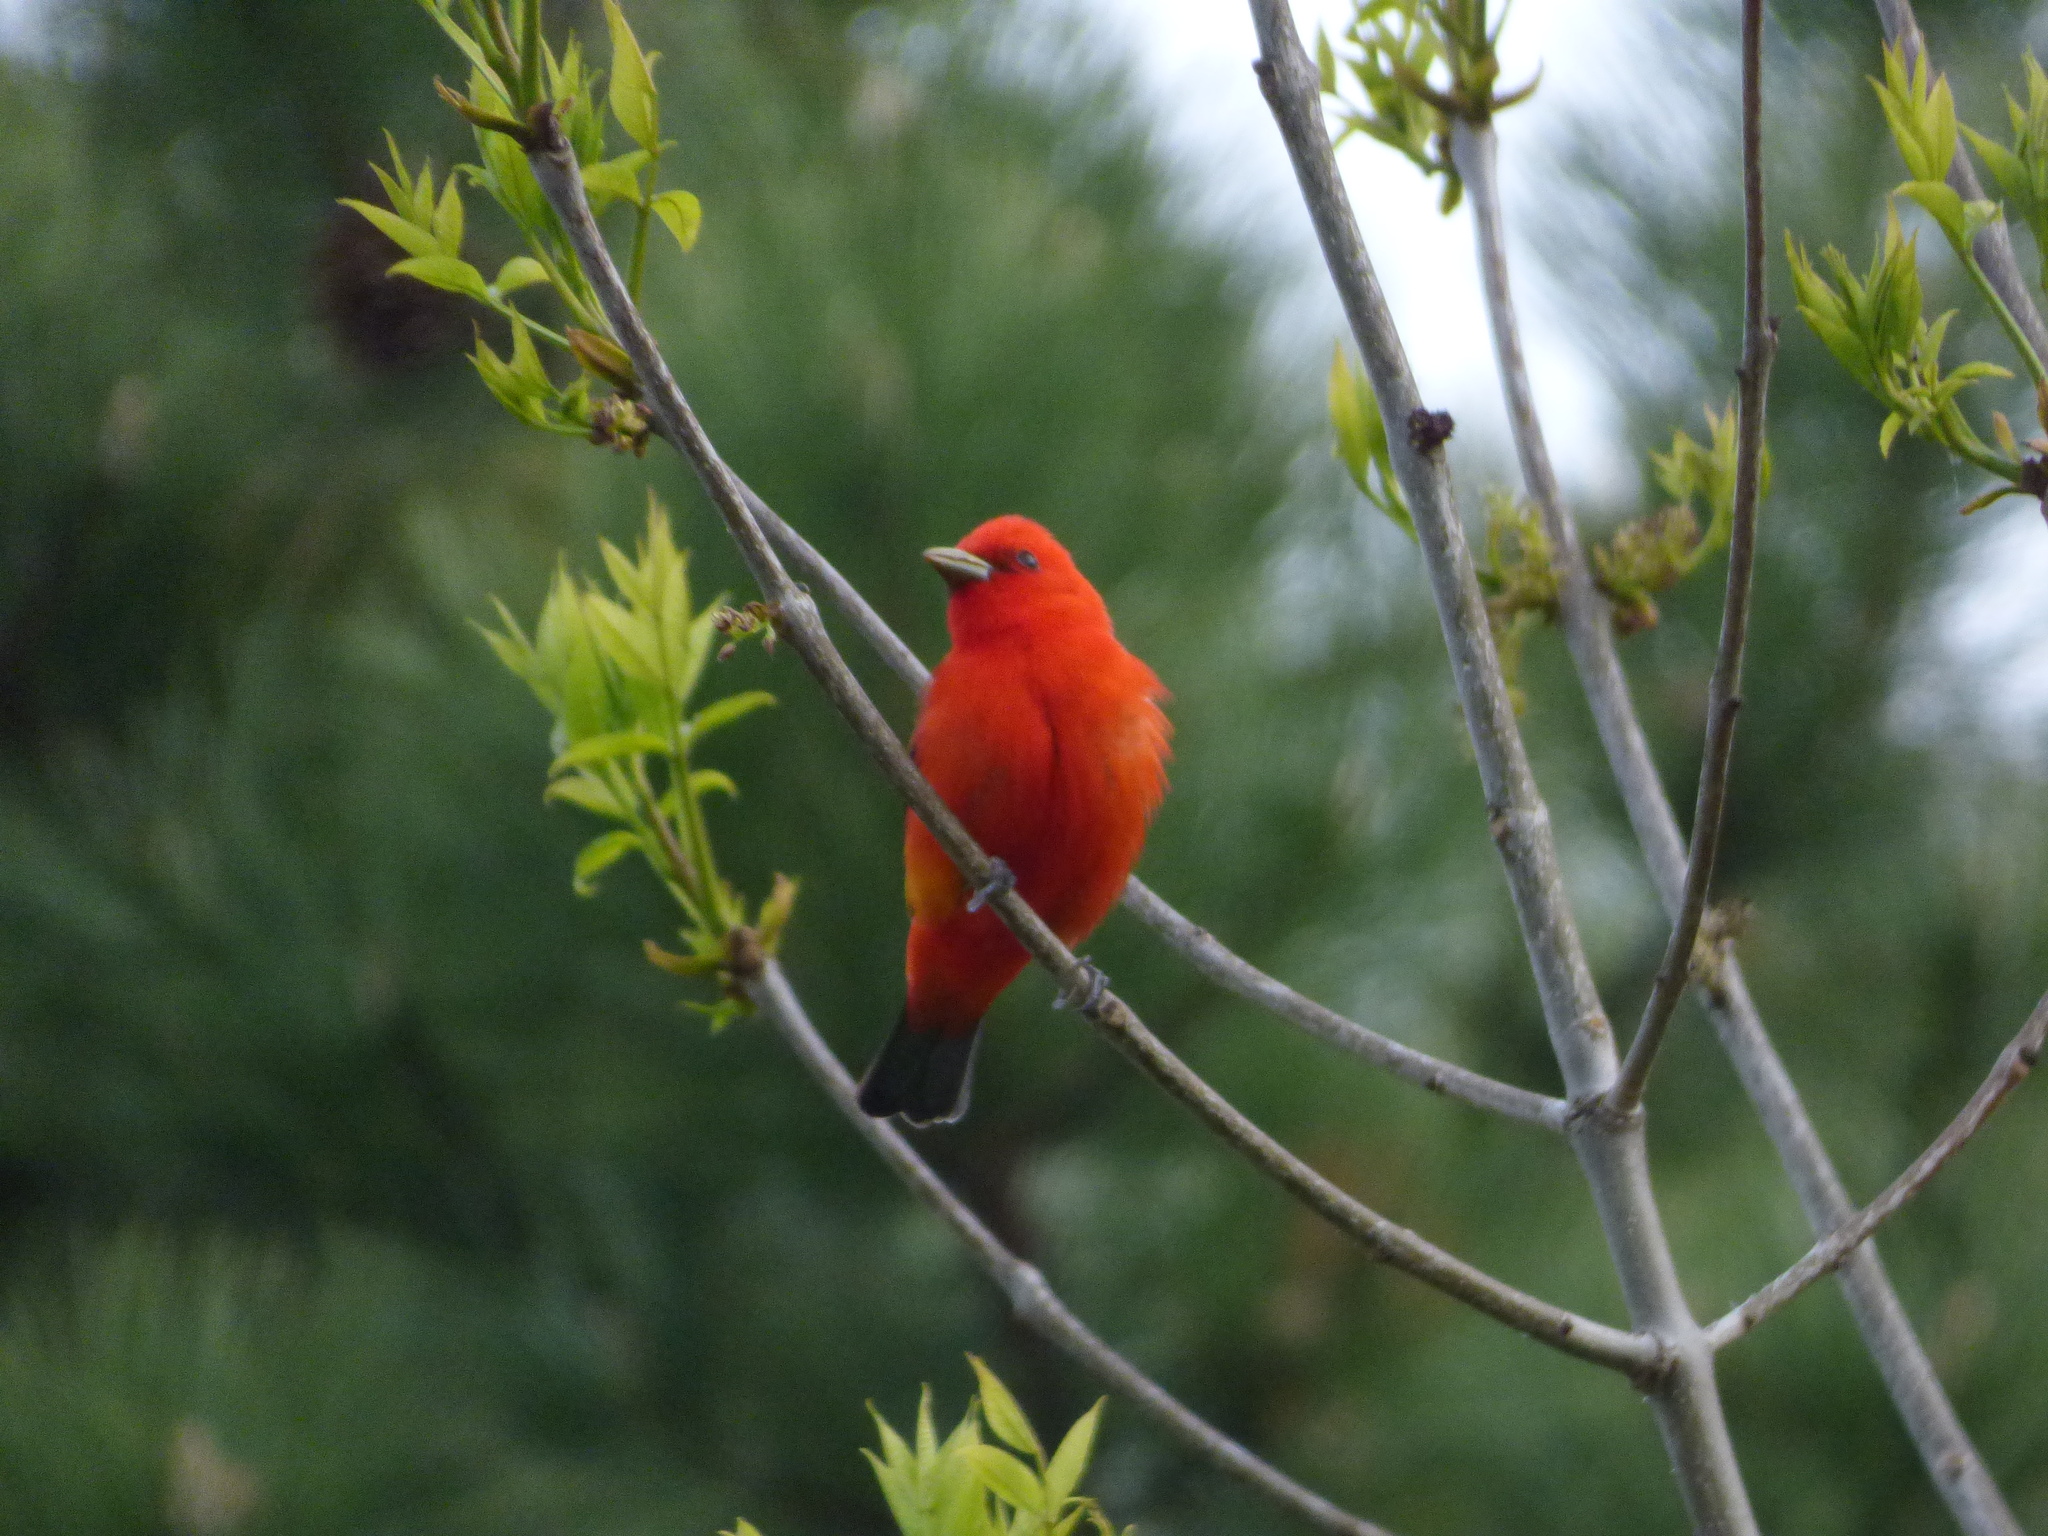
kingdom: Animalia
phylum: Chordata
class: Aves
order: Passeriformes
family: Cardinalidae
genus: Piranga
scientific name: Piranga olivacea
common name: Scarlet tanager
